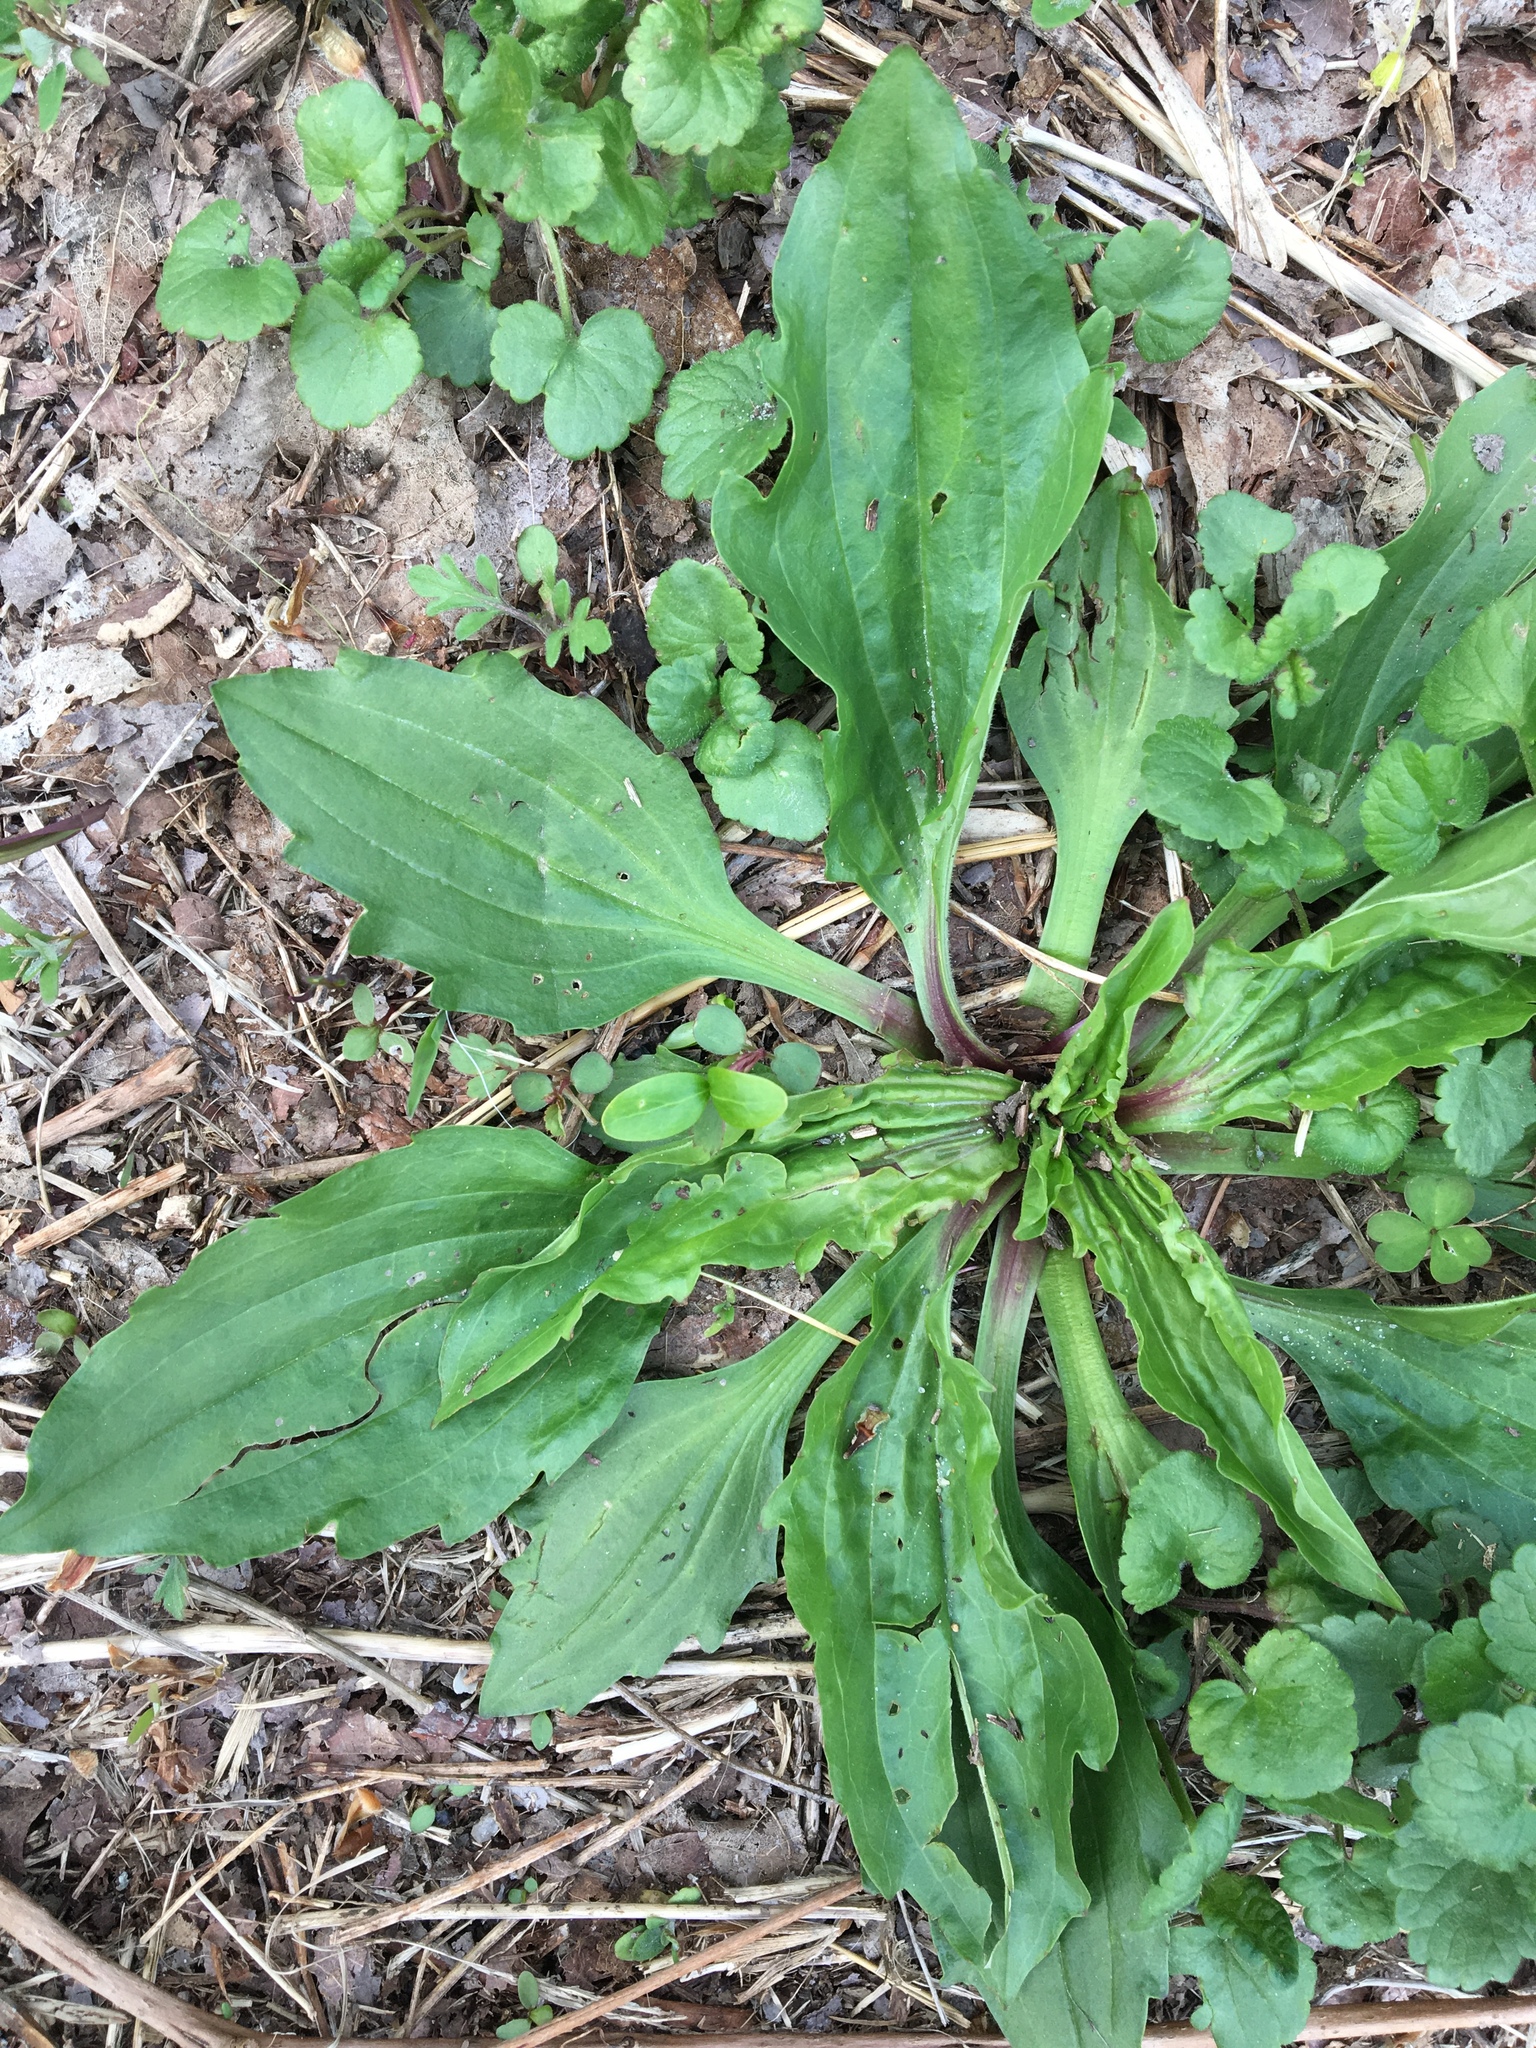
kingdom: Plantae
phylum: Tracheophyta
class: Magnoliopsida
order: Lamiales
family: Plantaginaceae
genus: Plantago
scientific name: Plantago major
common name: Common plantain
